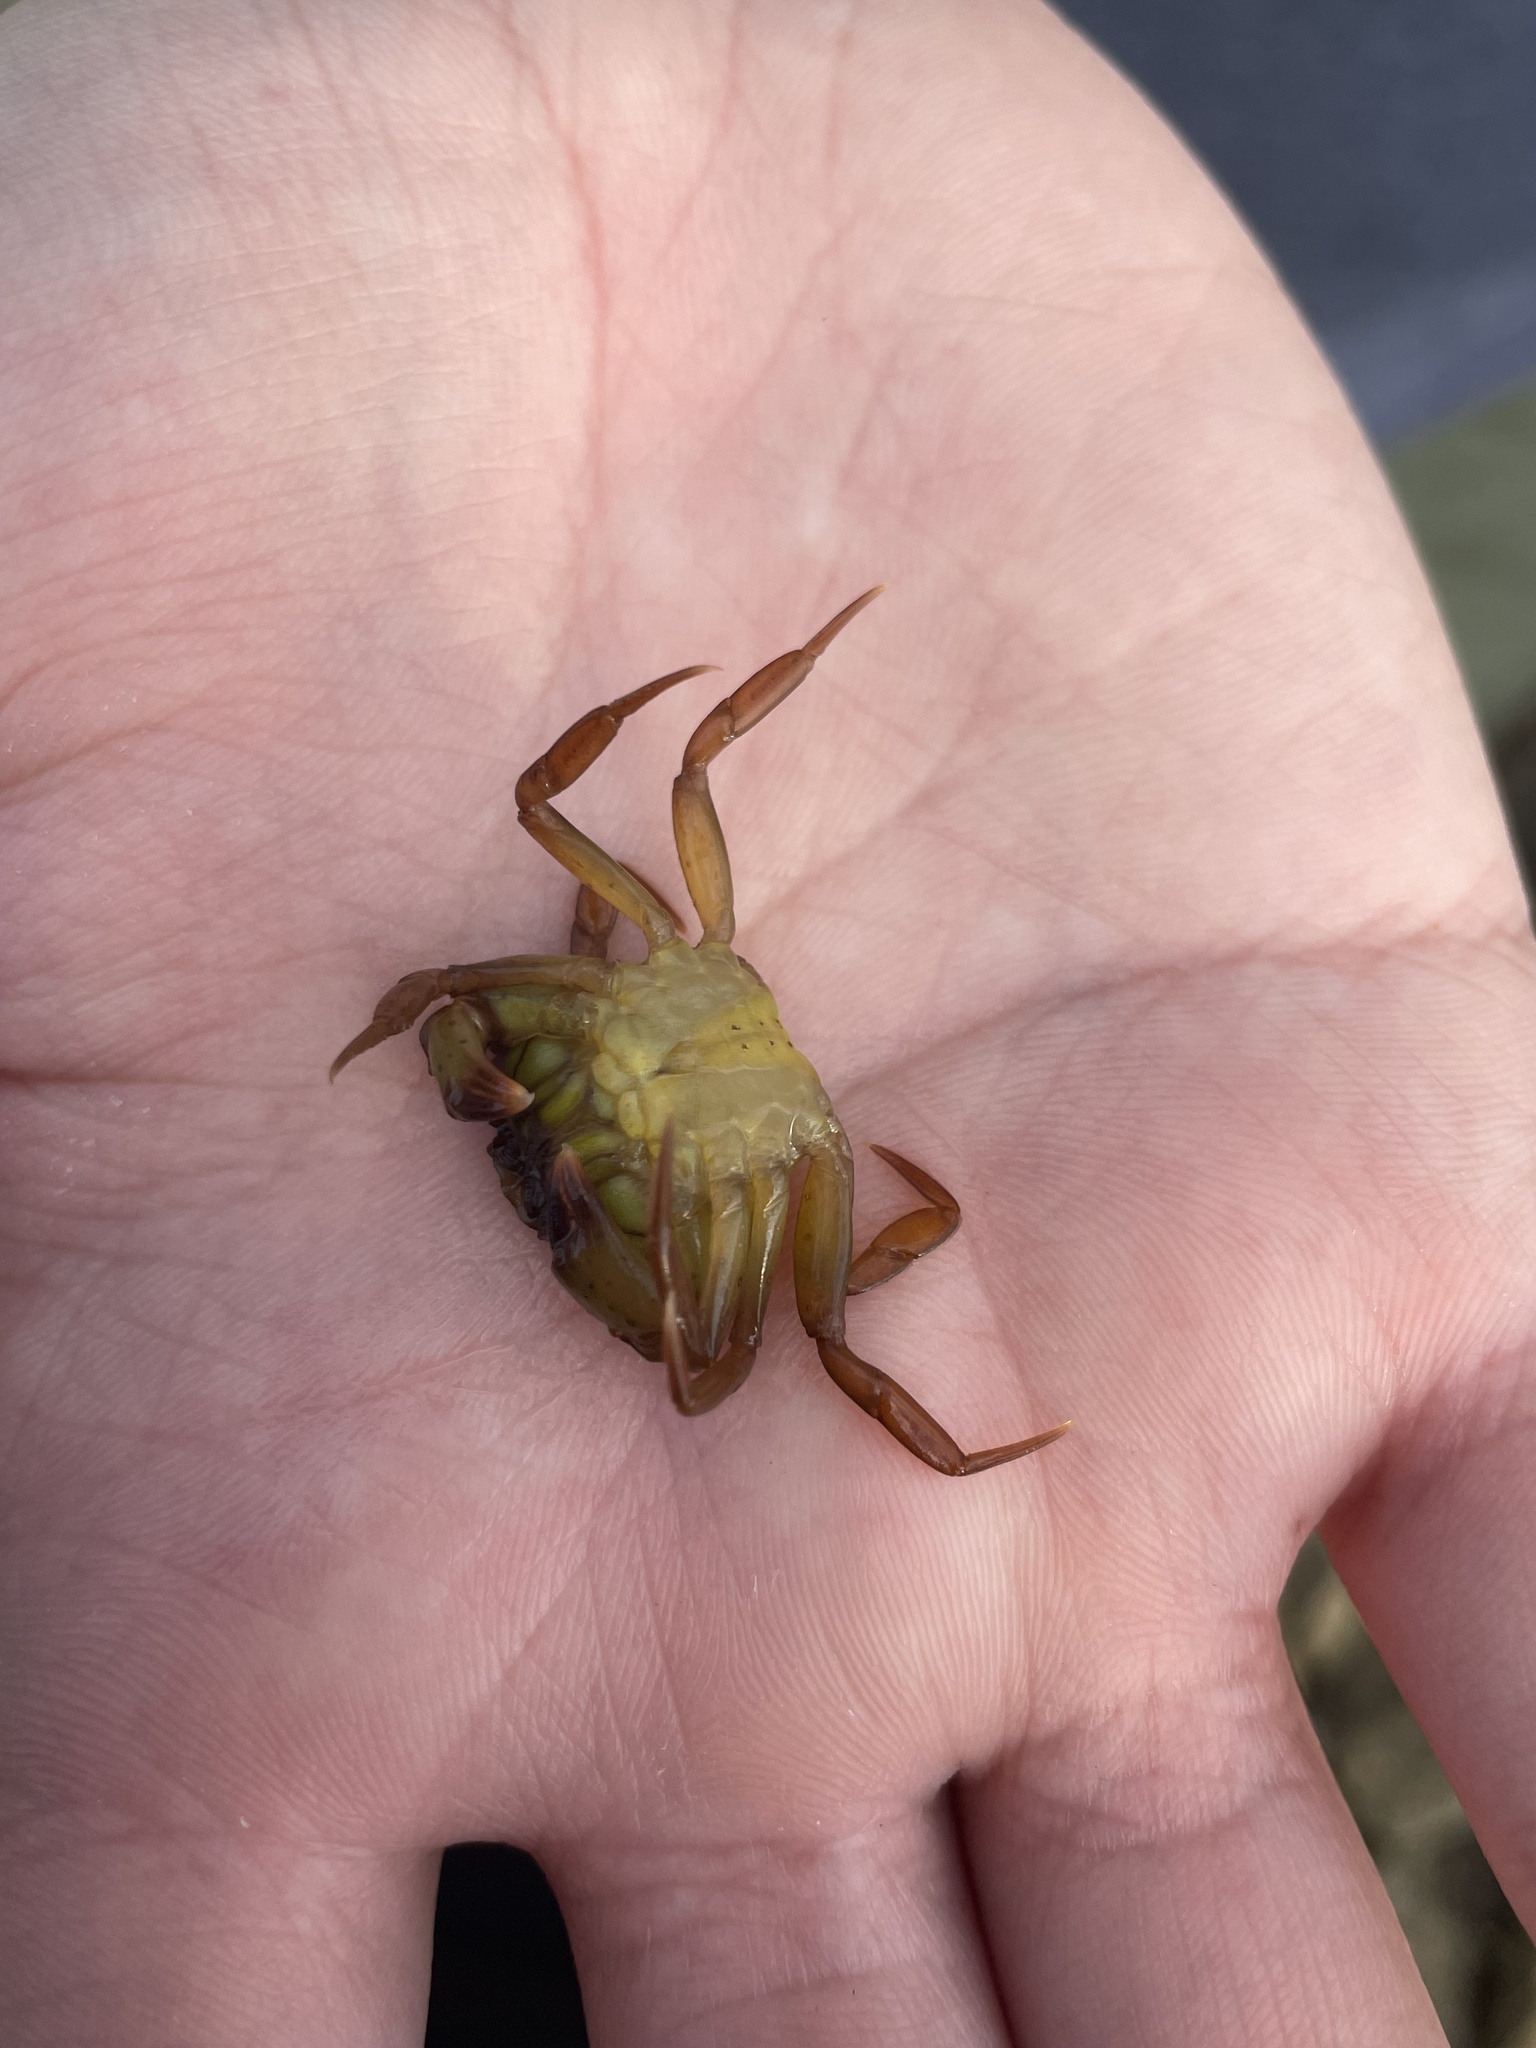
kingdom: Animalia
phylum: Arthropoda
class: Malacostraca
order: Decapoda
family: Carcinidae
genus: Carcinus
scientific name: Carcinus maenas
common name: European green crab
